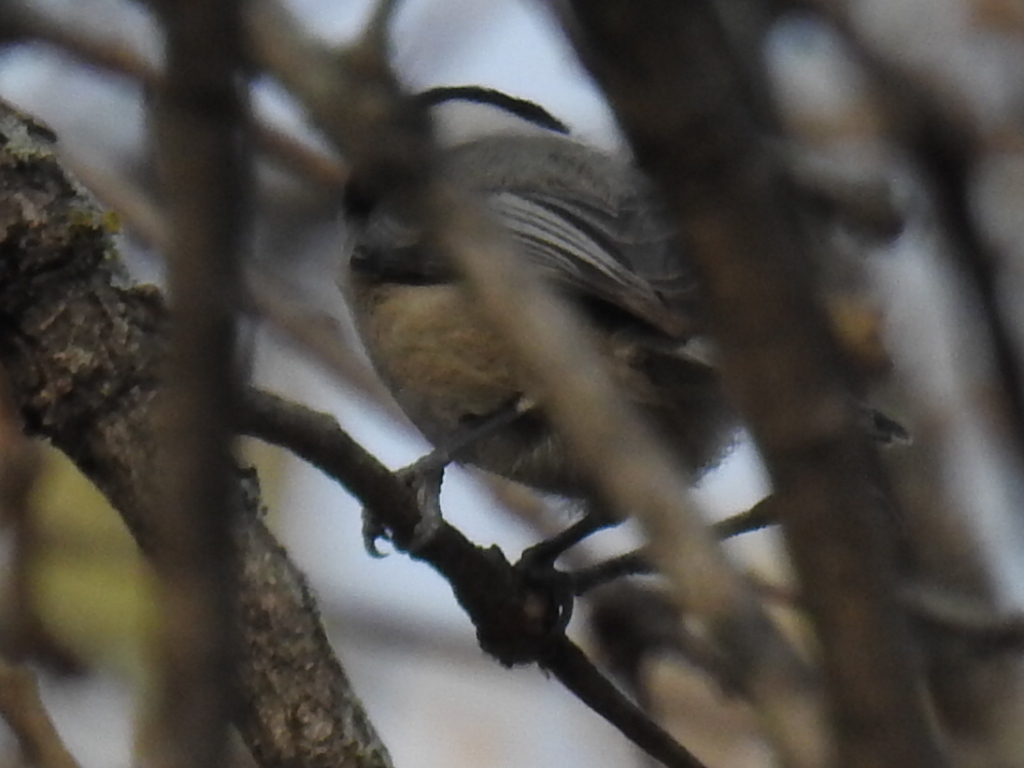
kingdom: Animalia
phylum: Chordata
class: Aves
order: Passeriformes
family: Paridae
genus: Poecile
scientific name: Poecile carolinensis
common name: Carolina chickadee
